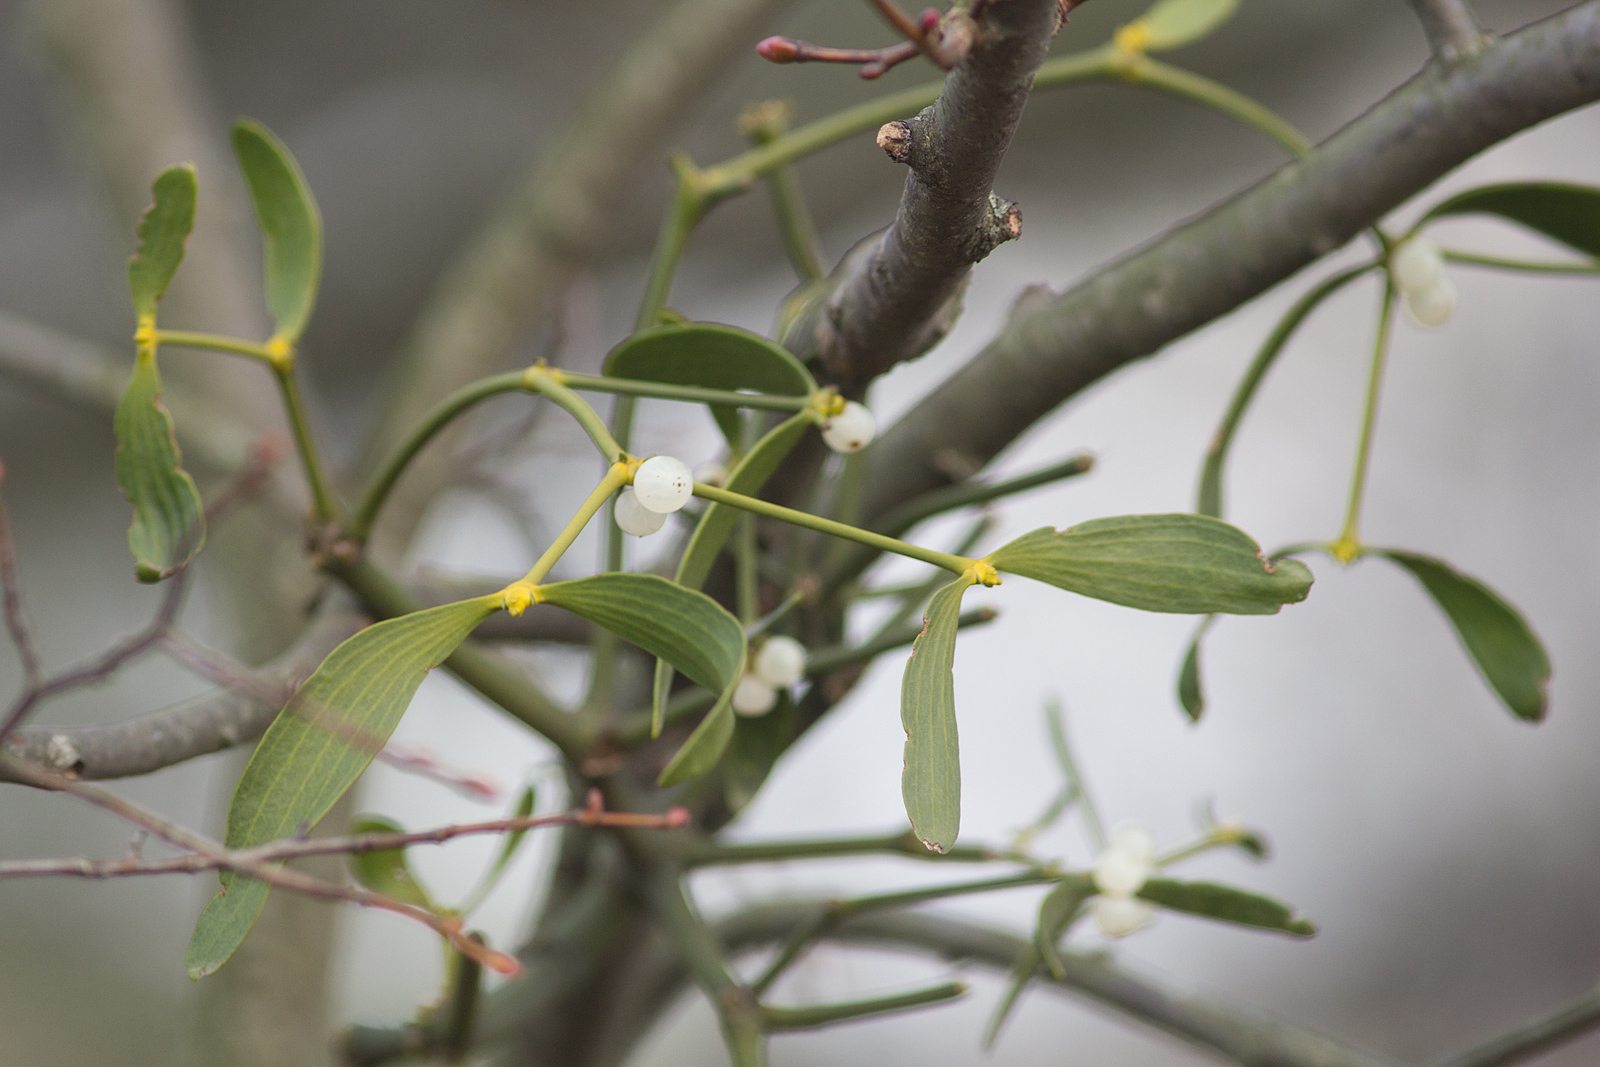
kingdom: Plantae
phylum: Tracheophyta
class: Magnoliopsida
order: Santalales
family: Viscaceae
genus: Viscum
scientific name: Viscum album
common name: Mistletoe
